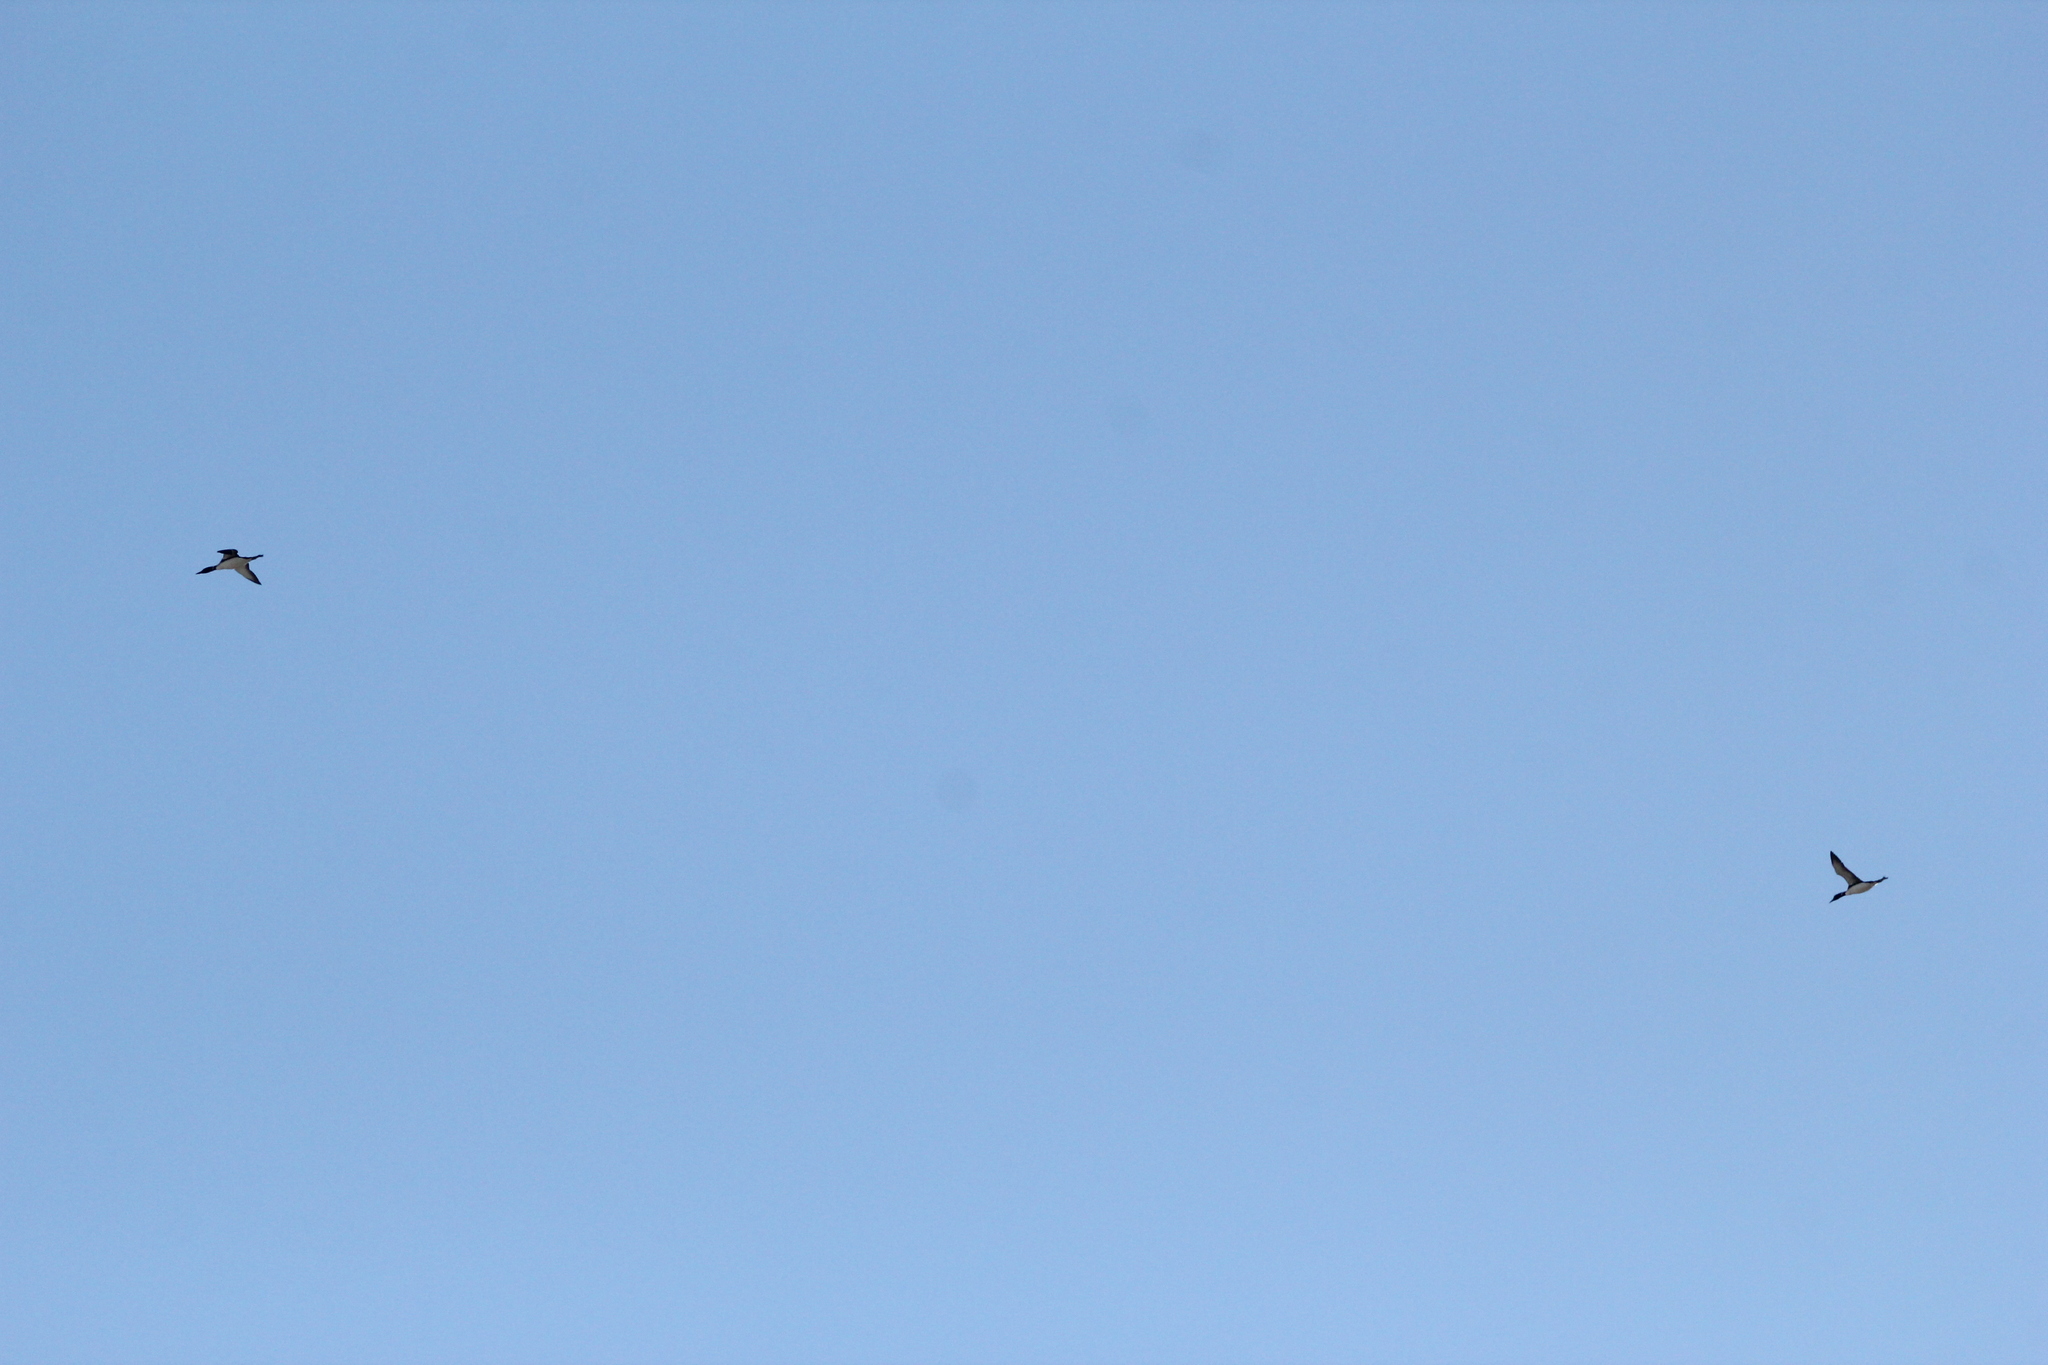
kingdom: Animalia
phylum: Chordata
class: Aves
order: Gaviiformes
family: Gaviidae
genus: Gavia
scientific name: Gavia immer
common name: Common loon
